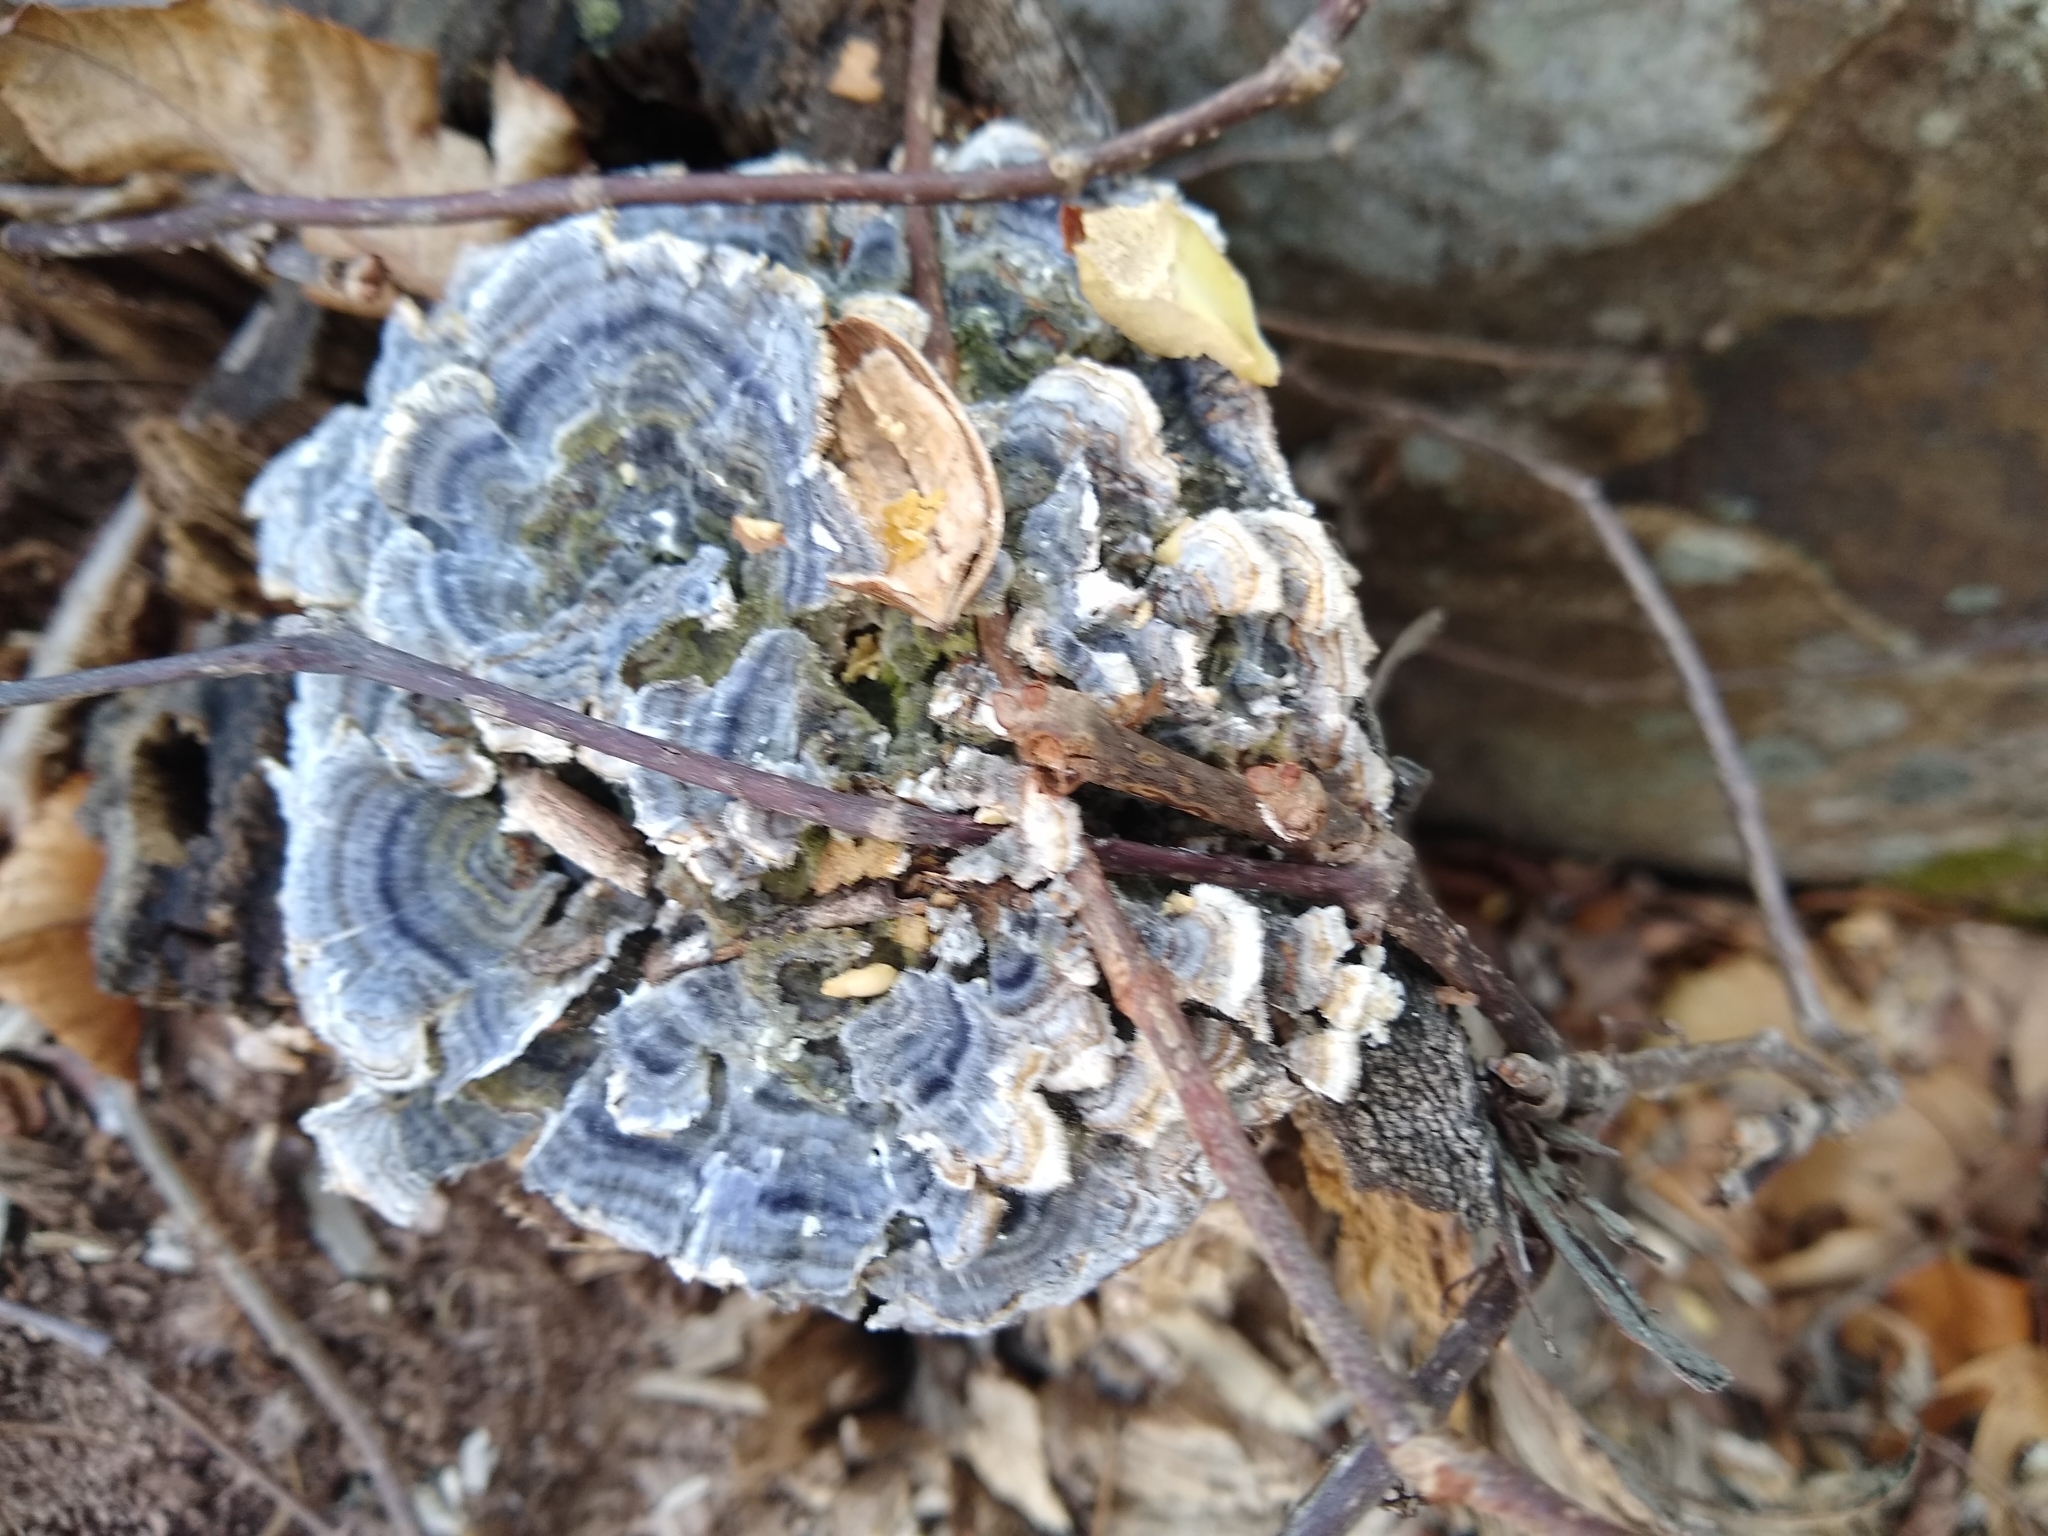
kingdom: Fungi
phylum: Basidiomycota
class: Agaricomycetes
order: Polyporales
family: Polyporaceae
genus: Trametes
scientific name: Trametes versicolor
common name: Turkeytail
